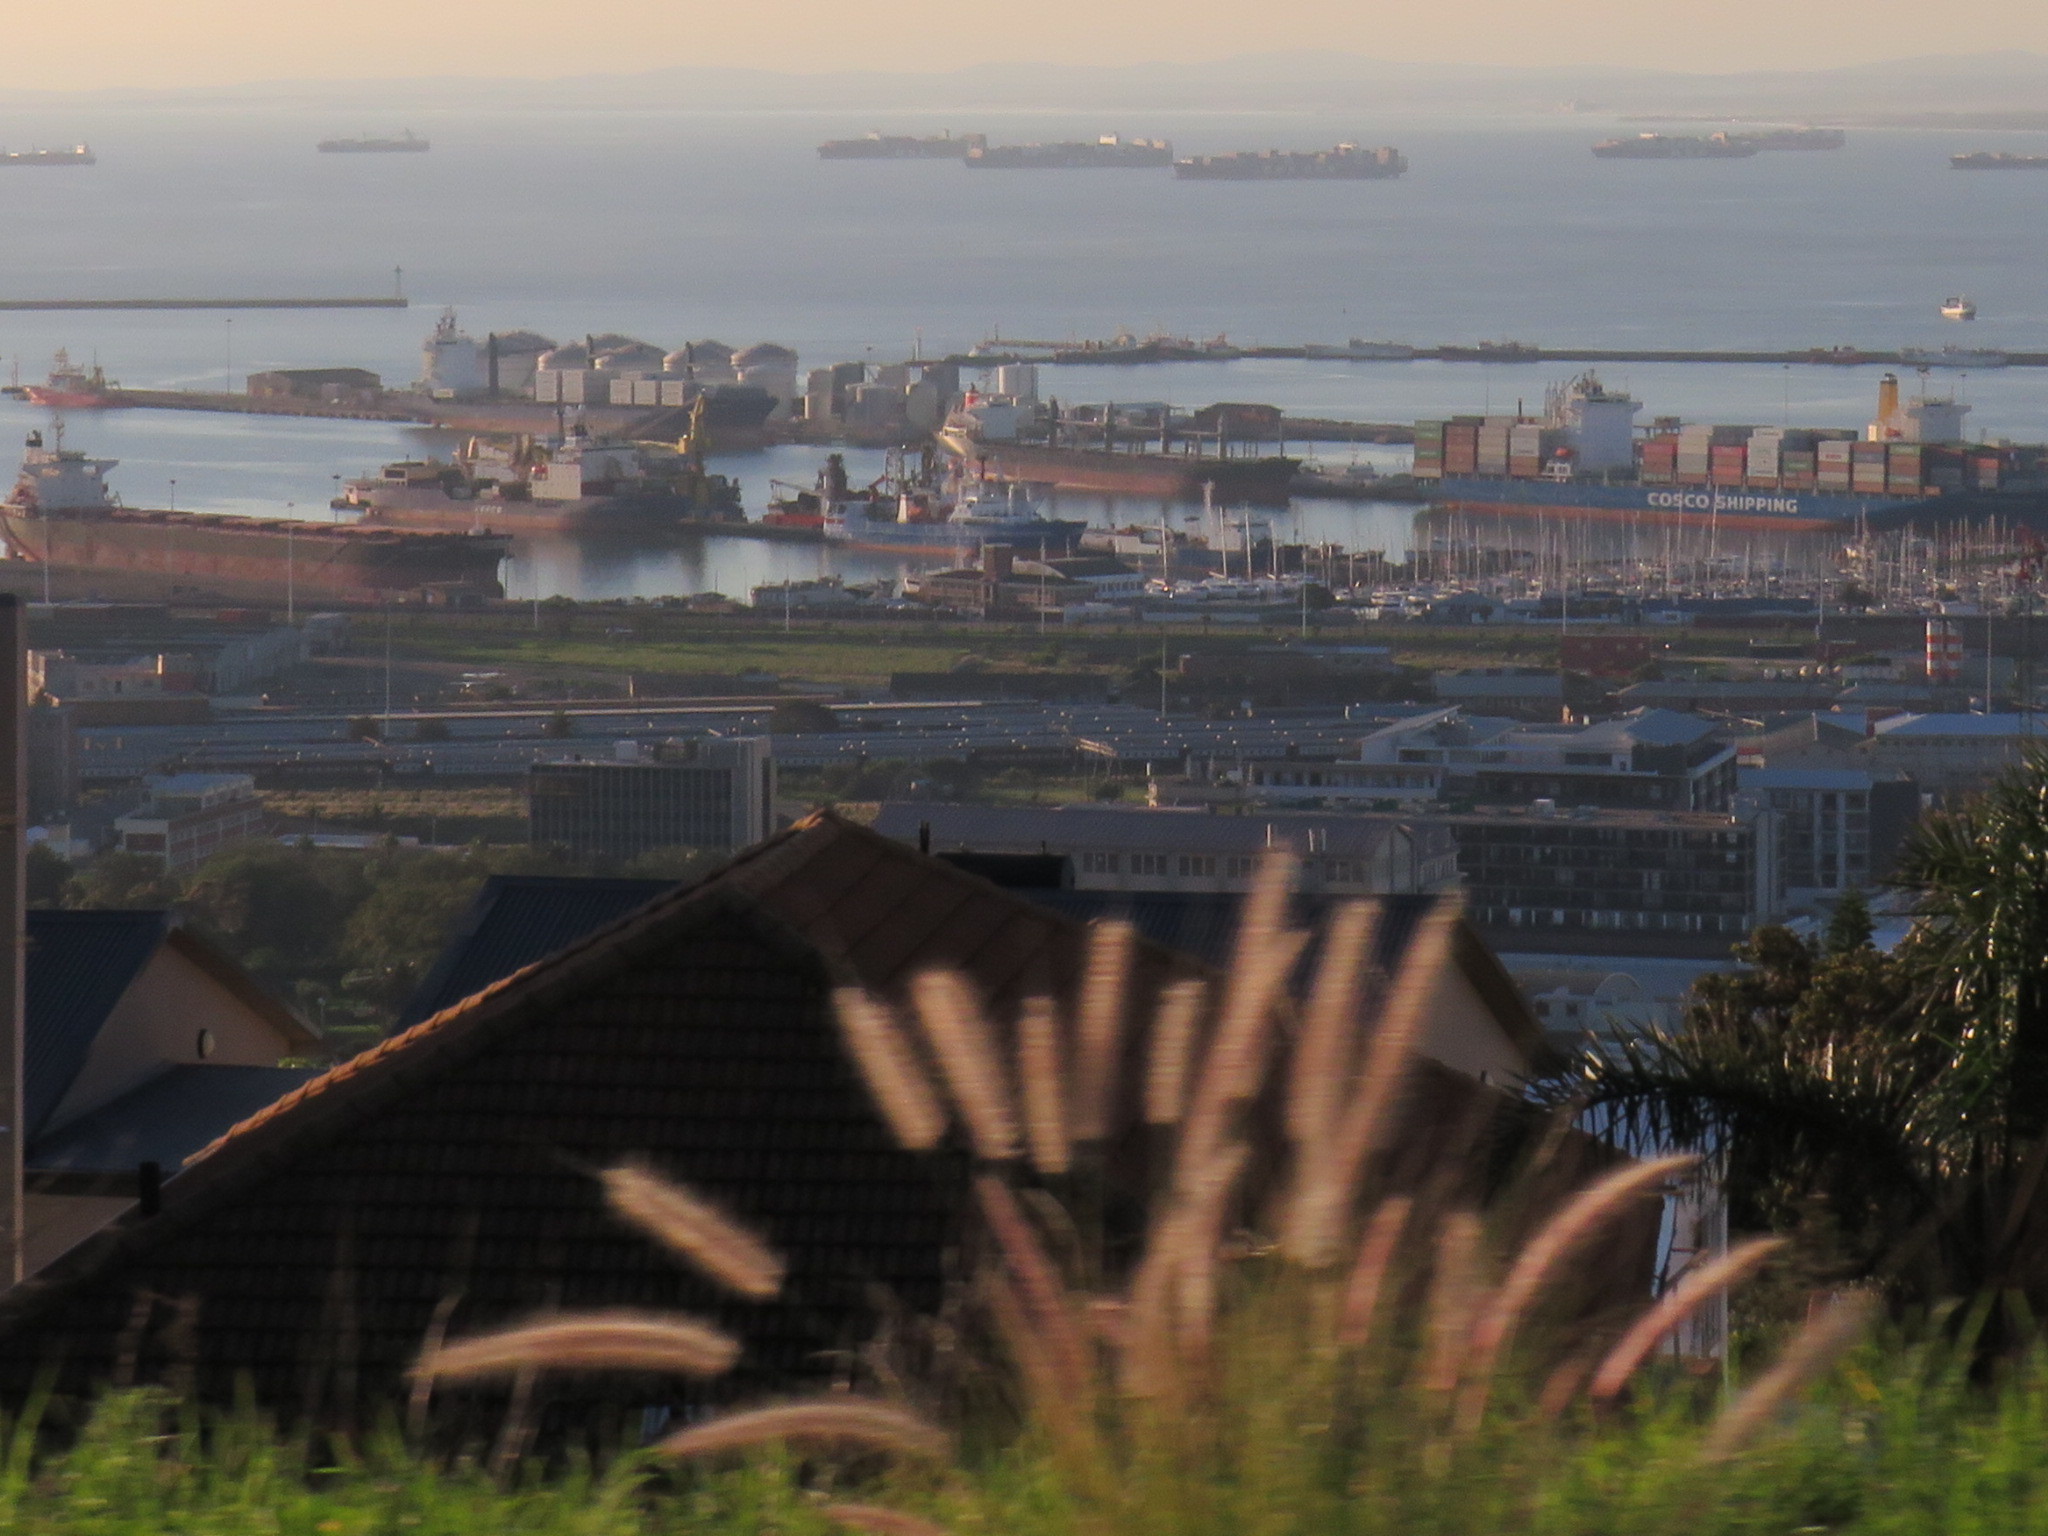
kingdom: Plantae
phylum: Tracheophyta
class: Liliopsida
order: Poales
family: Poaceae
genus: Cenchrus
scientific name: Cenchrus setaceus
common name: Crimson fountaingrass
